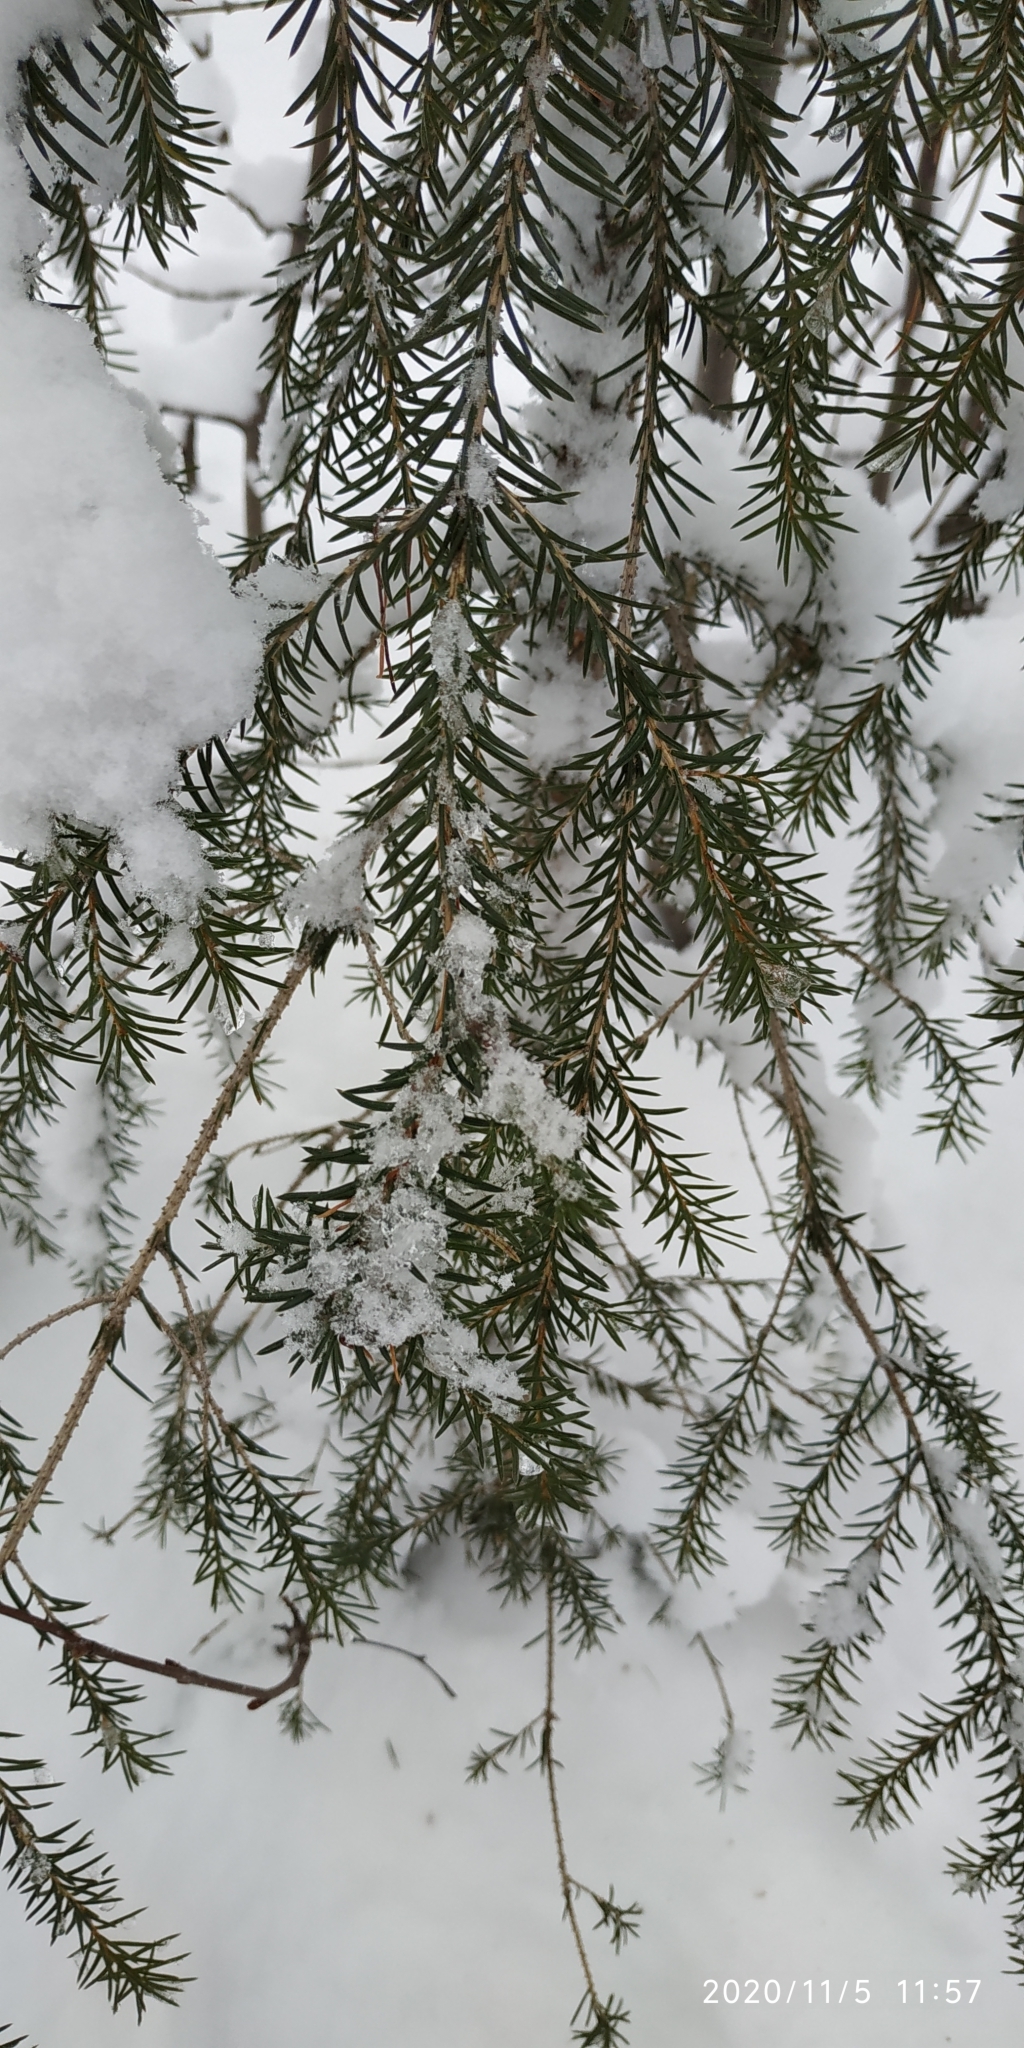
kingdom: Plantae
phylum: Tracheophyta
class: Pinopsida
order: Pinales
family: Pinaceae
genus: Picea
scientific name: Picea obovata
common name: Siberian spruce
